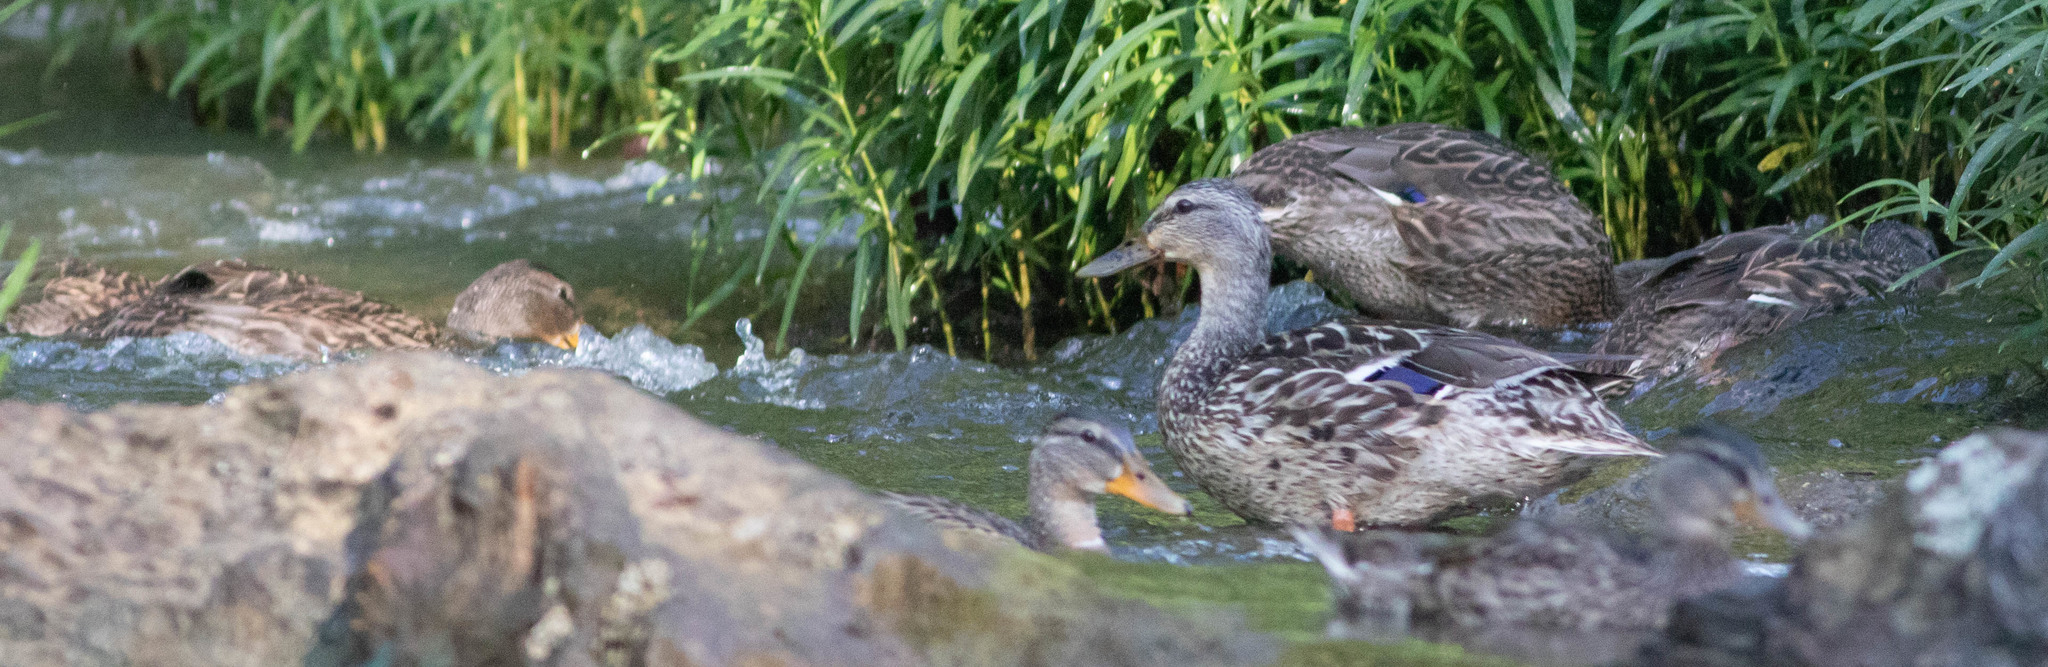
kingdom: Animalia
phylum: Chordata
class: Aves
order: Anseriformes
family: Anatidae
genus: Anas
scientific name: Anas platyrhynchos
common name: Mallard
